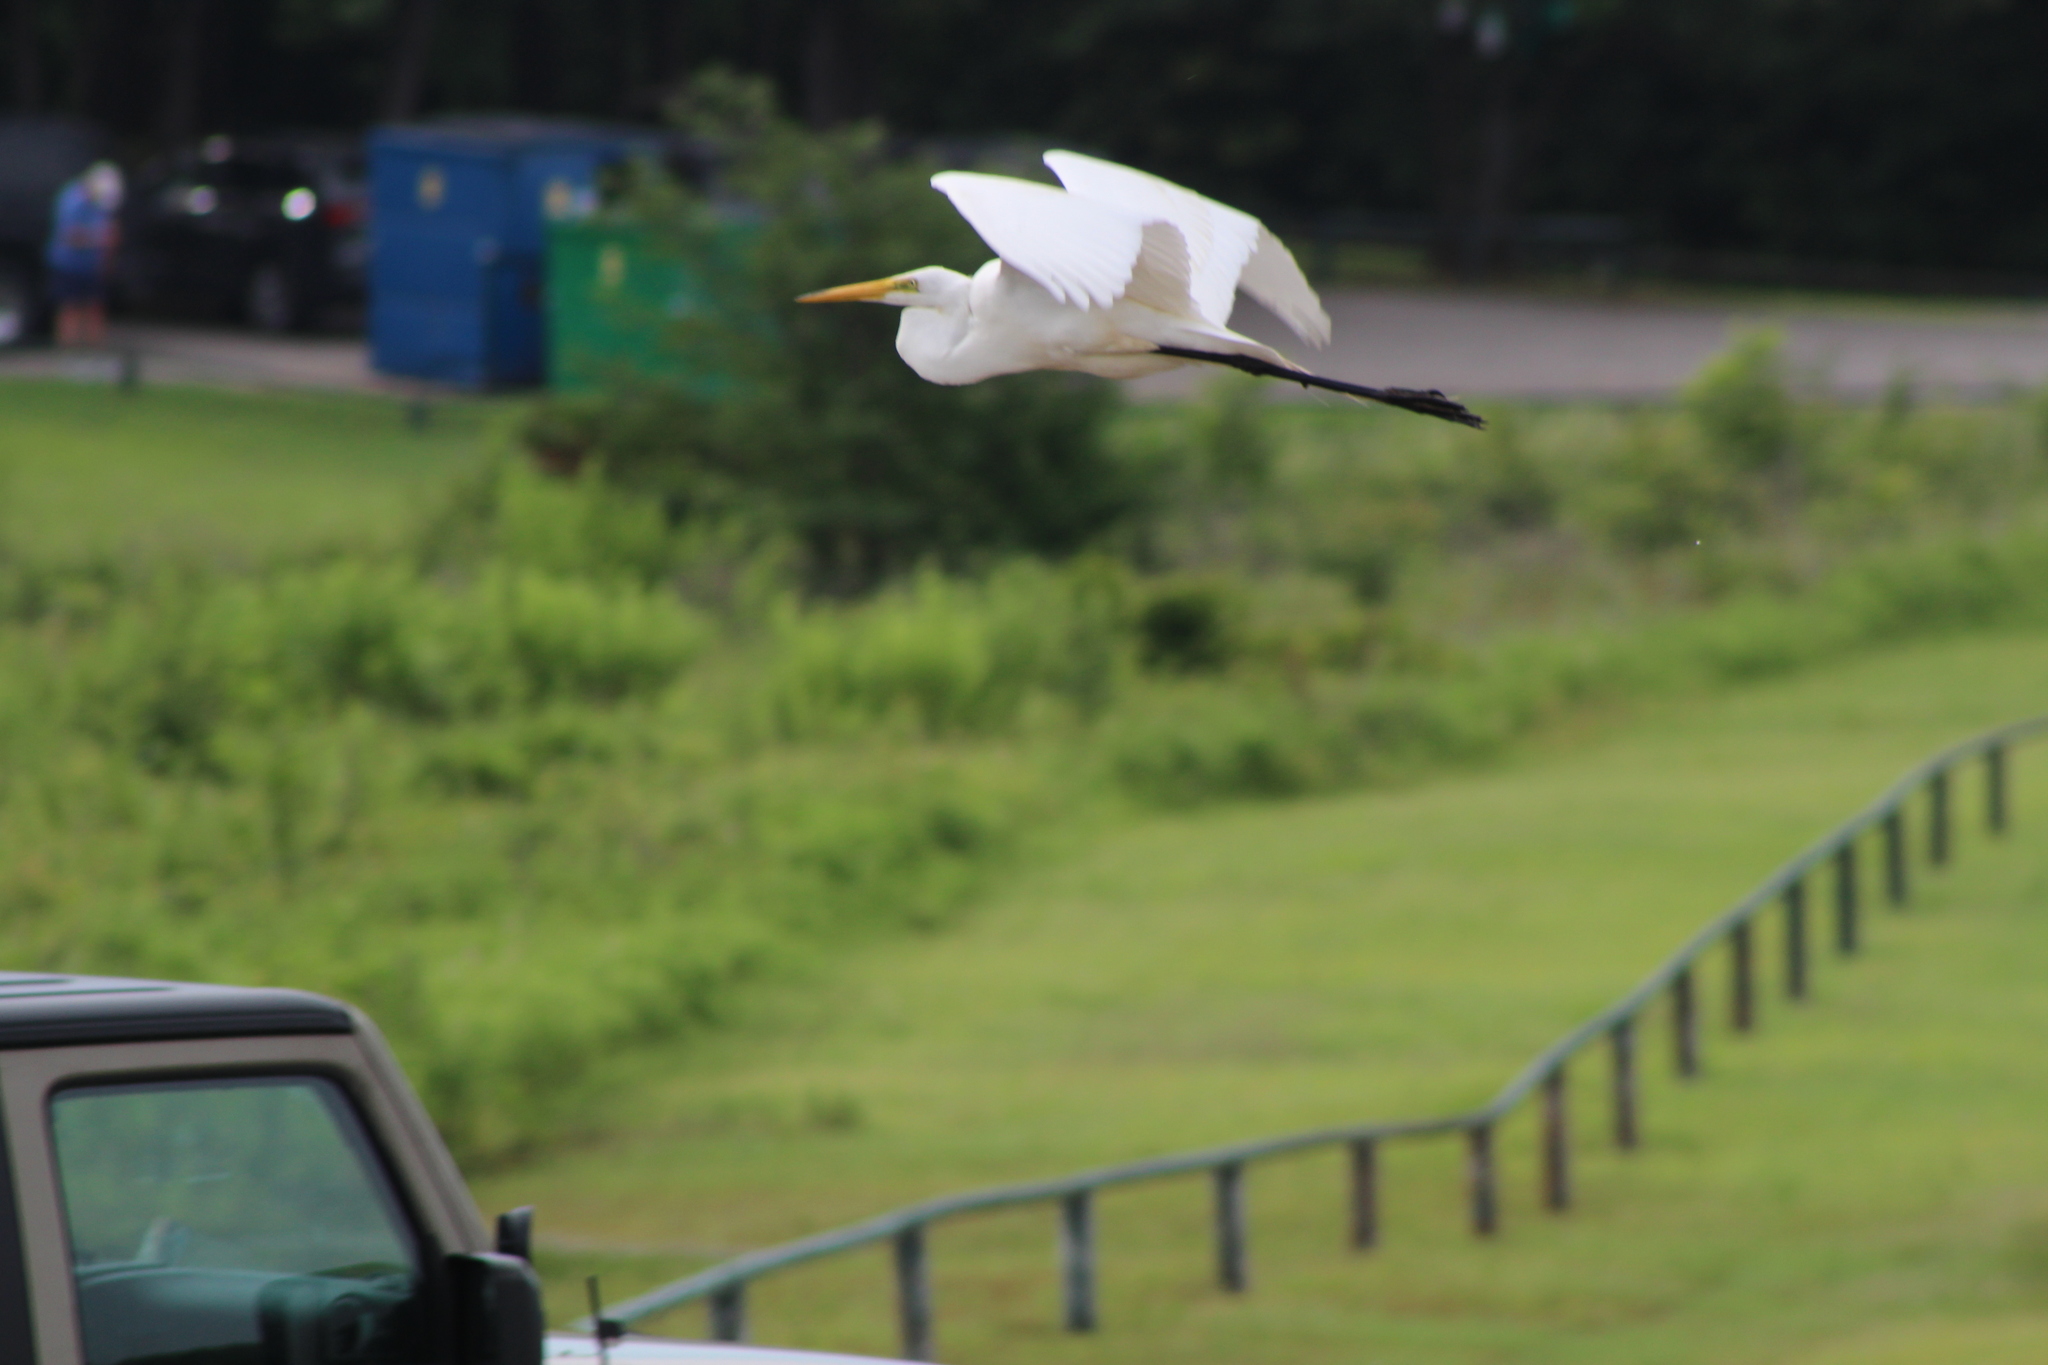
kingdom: Animalia
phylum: Chordata
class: Aves
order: Pelecaniformes
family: Ardeidae
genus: Ardea
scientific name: Ardea alba
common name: Great egret
